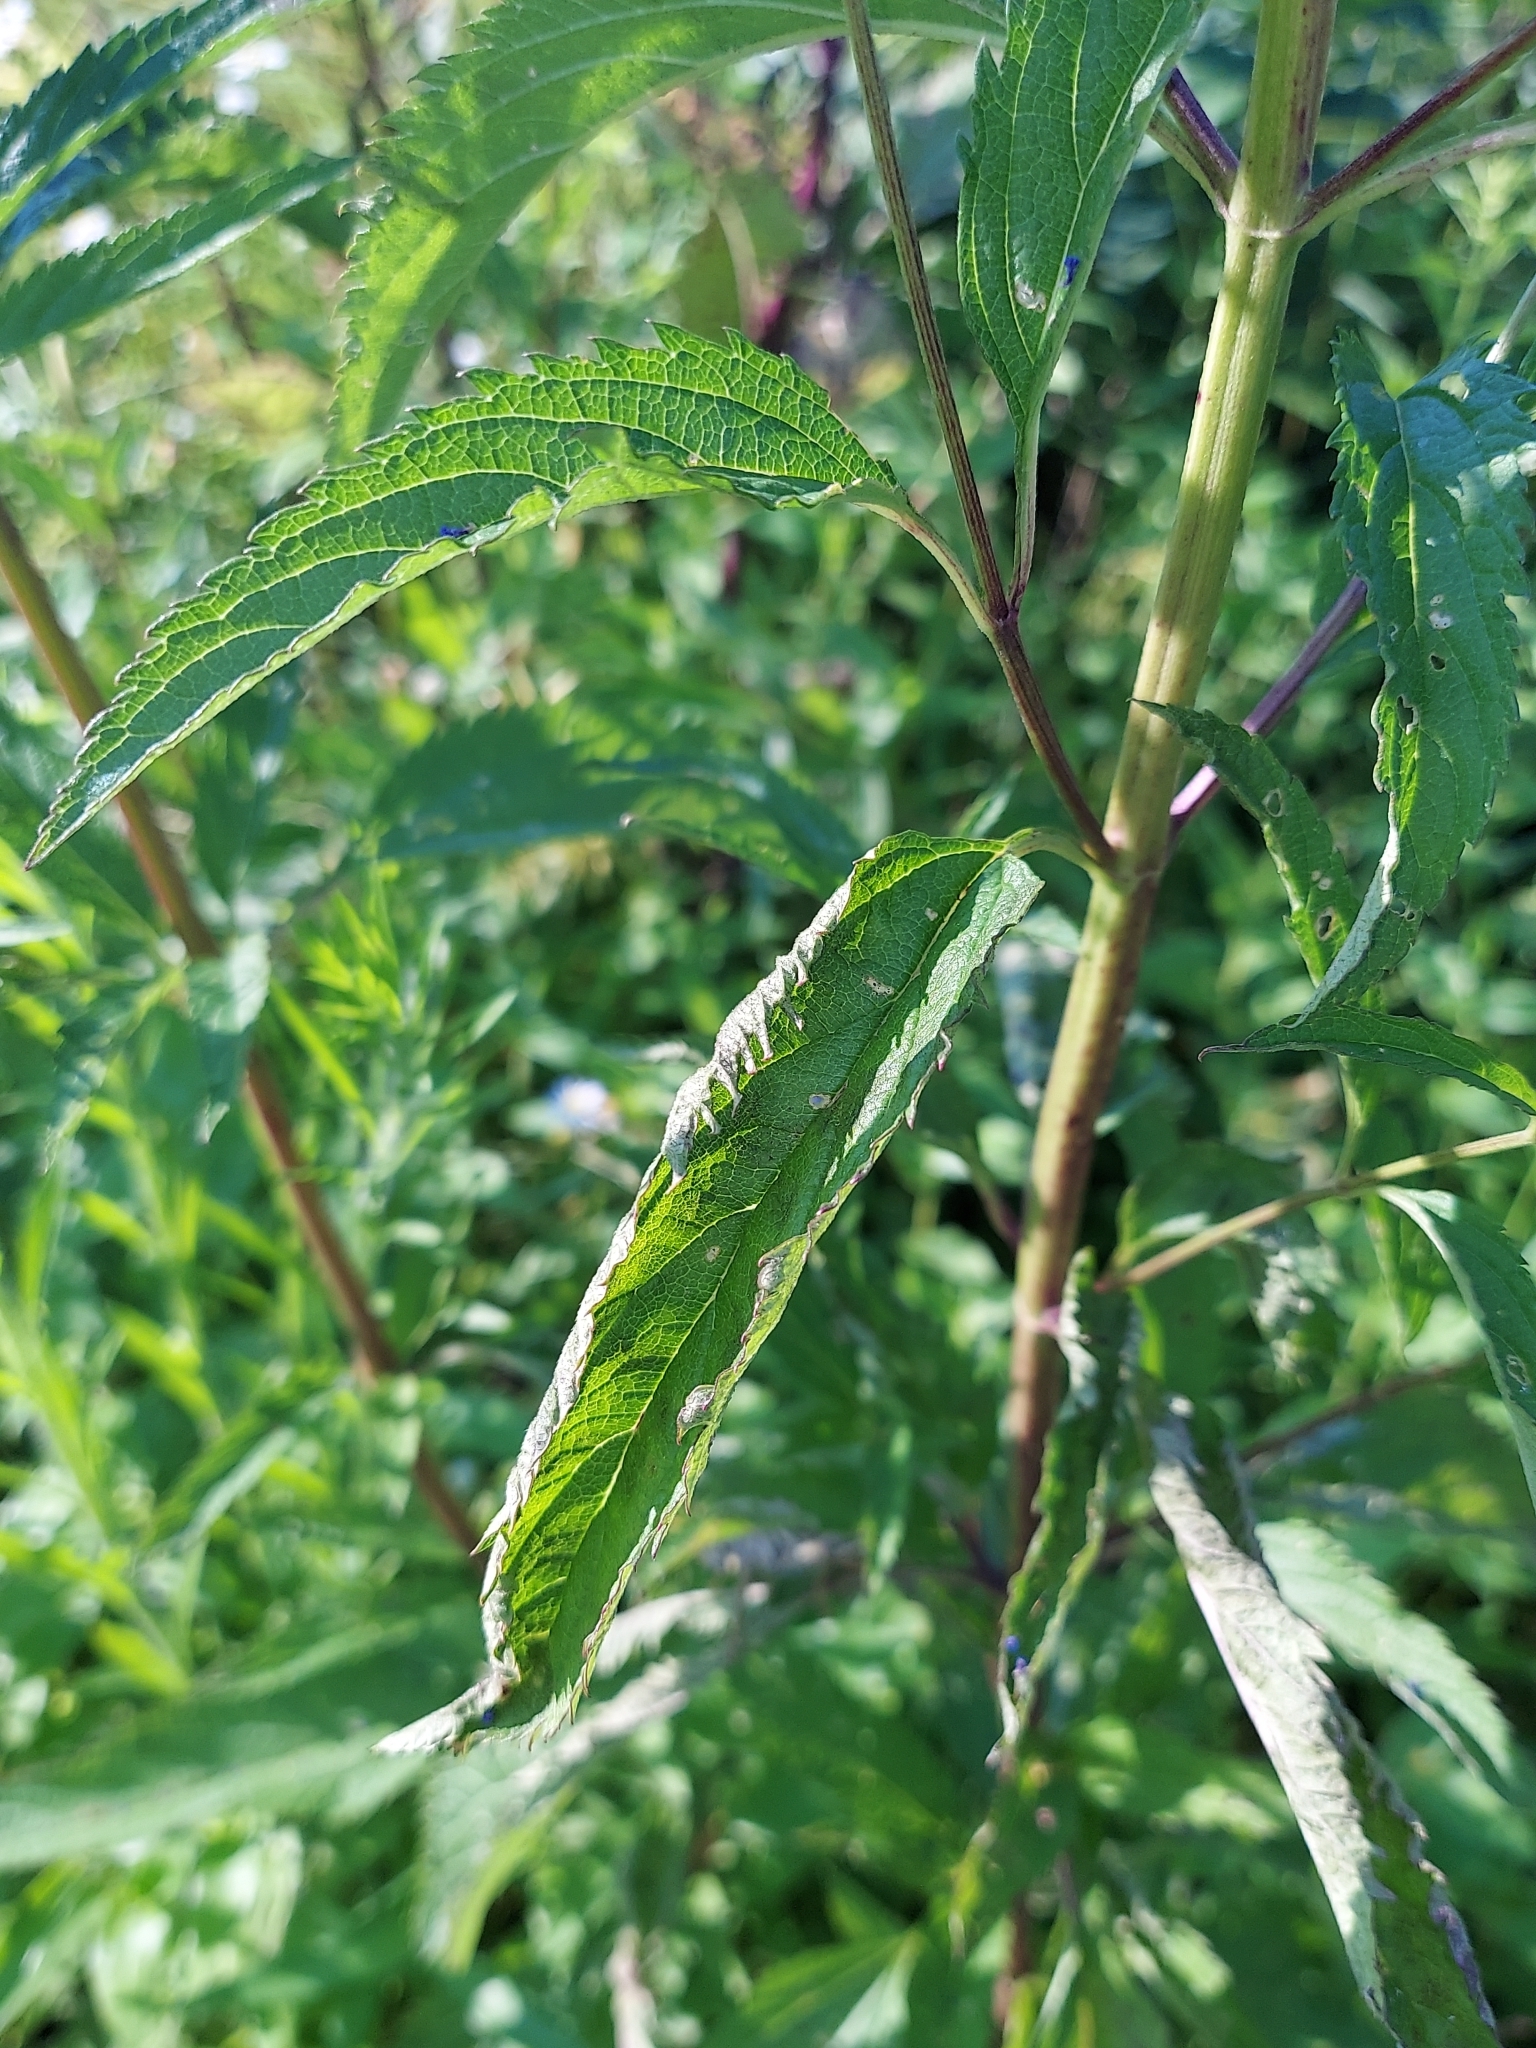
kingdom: Plantae
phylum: Tracheophyta
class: Magnoliopsida
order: Lamiales
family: Verbenaceae
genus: Verbena
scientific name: Verbena hastata
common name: American blue vervain
